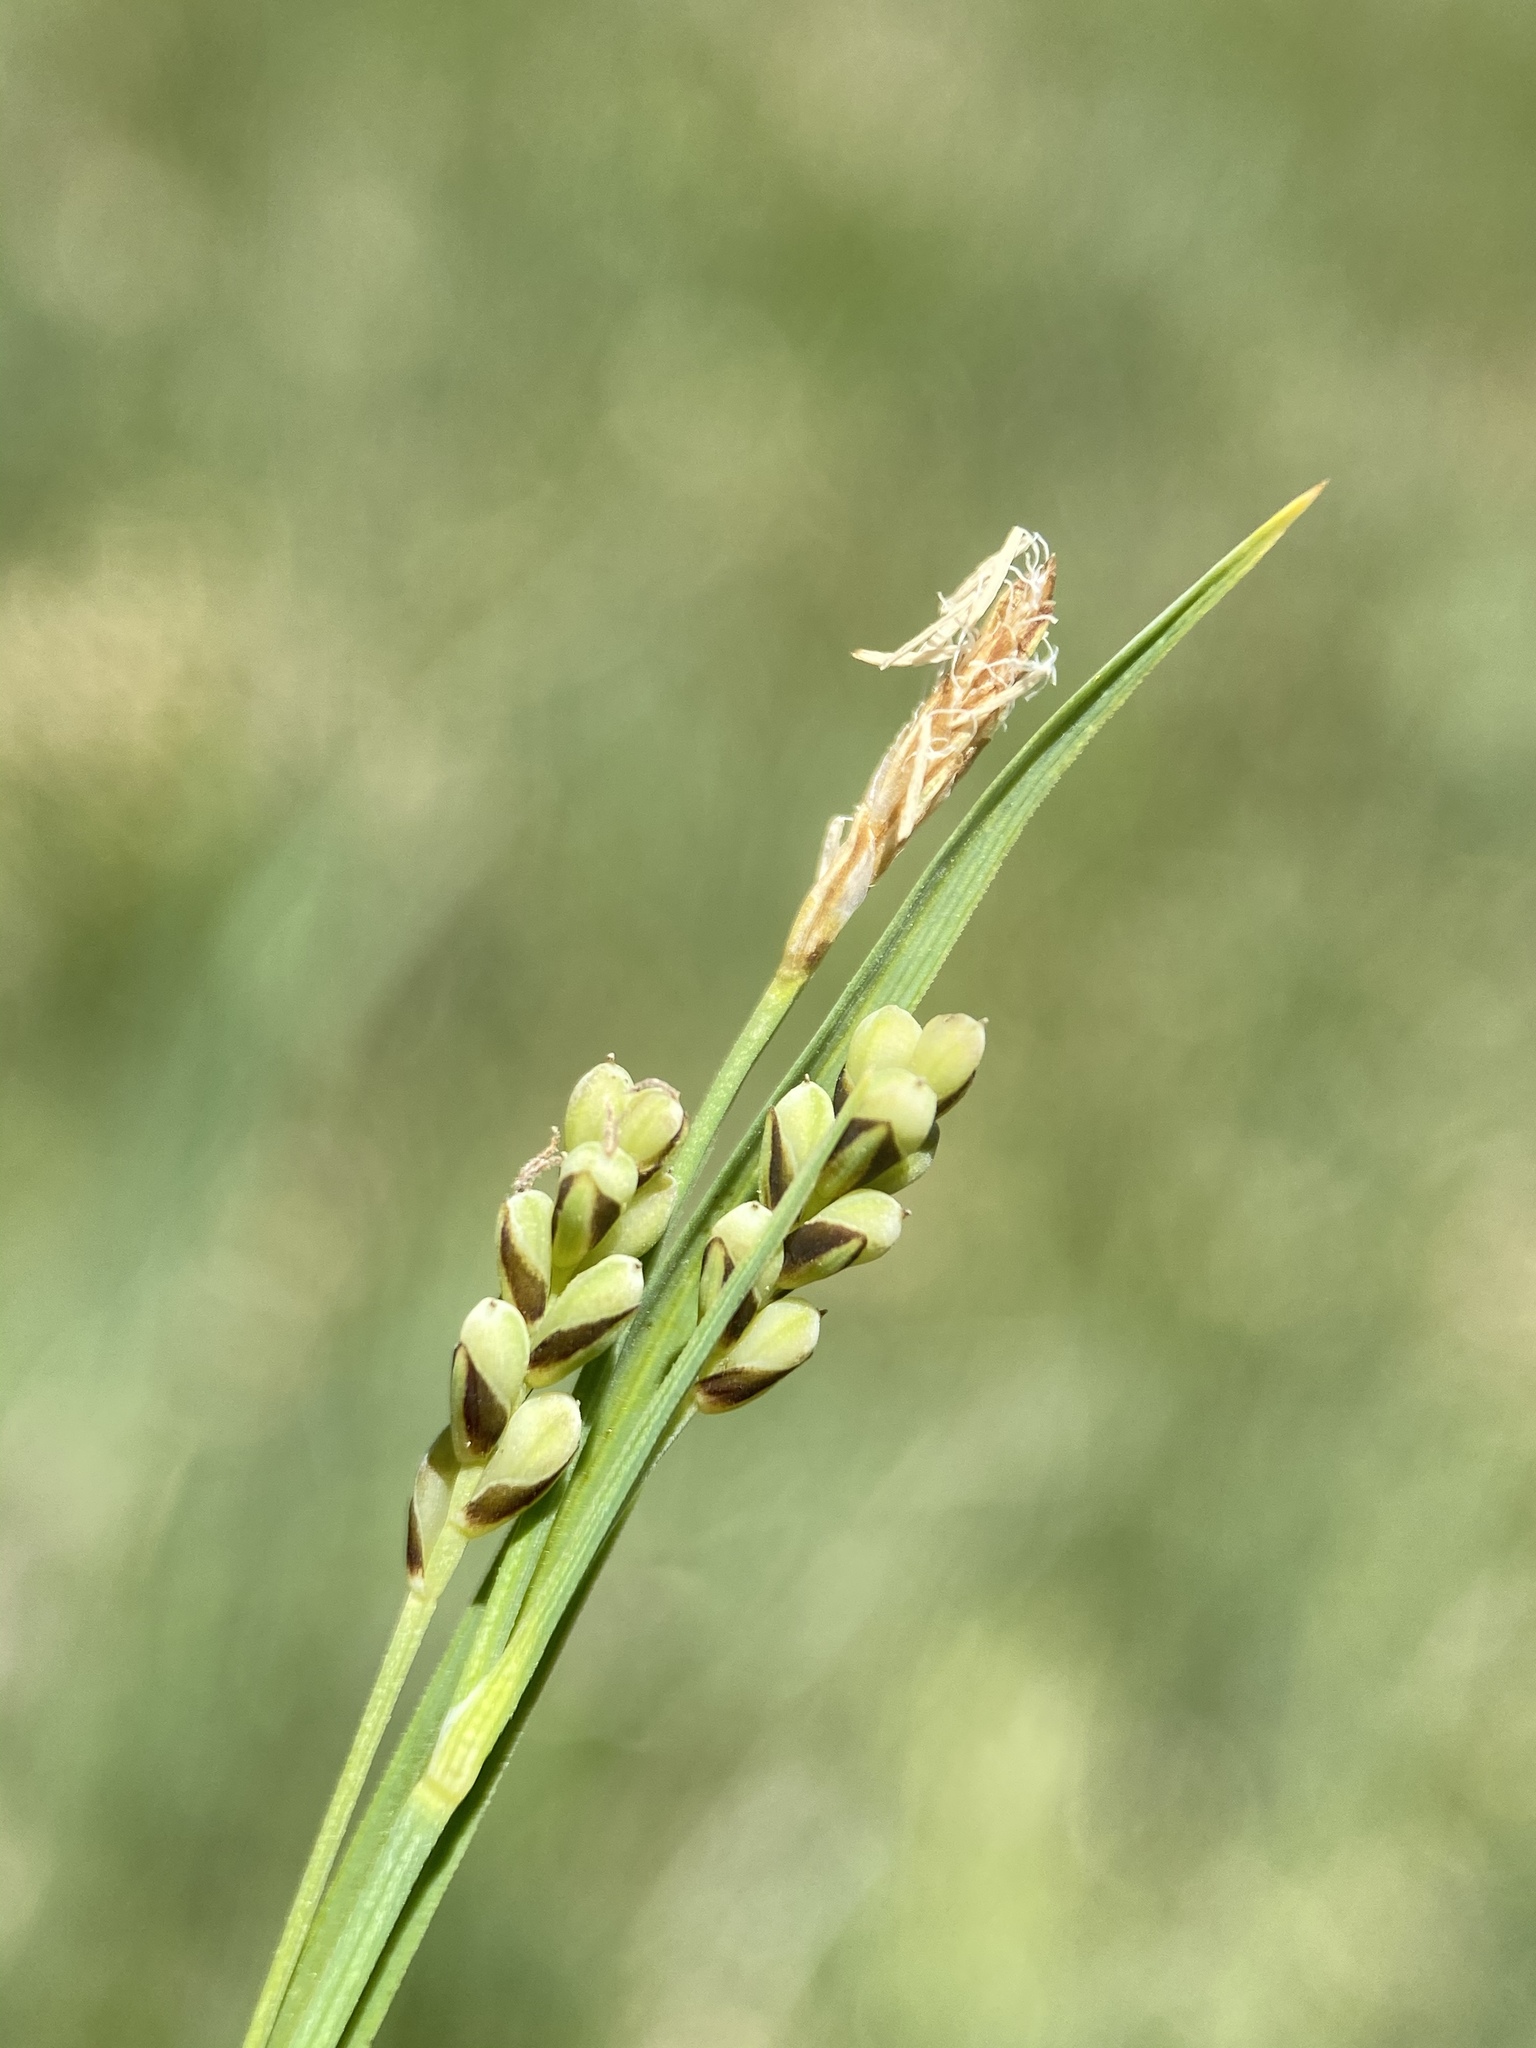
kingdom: Plantae
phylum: Tracheophyta
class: Liliopsida
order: Poales
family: Cyperaceae
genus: Carex
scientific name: Carex aurea
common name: Golden sedge
